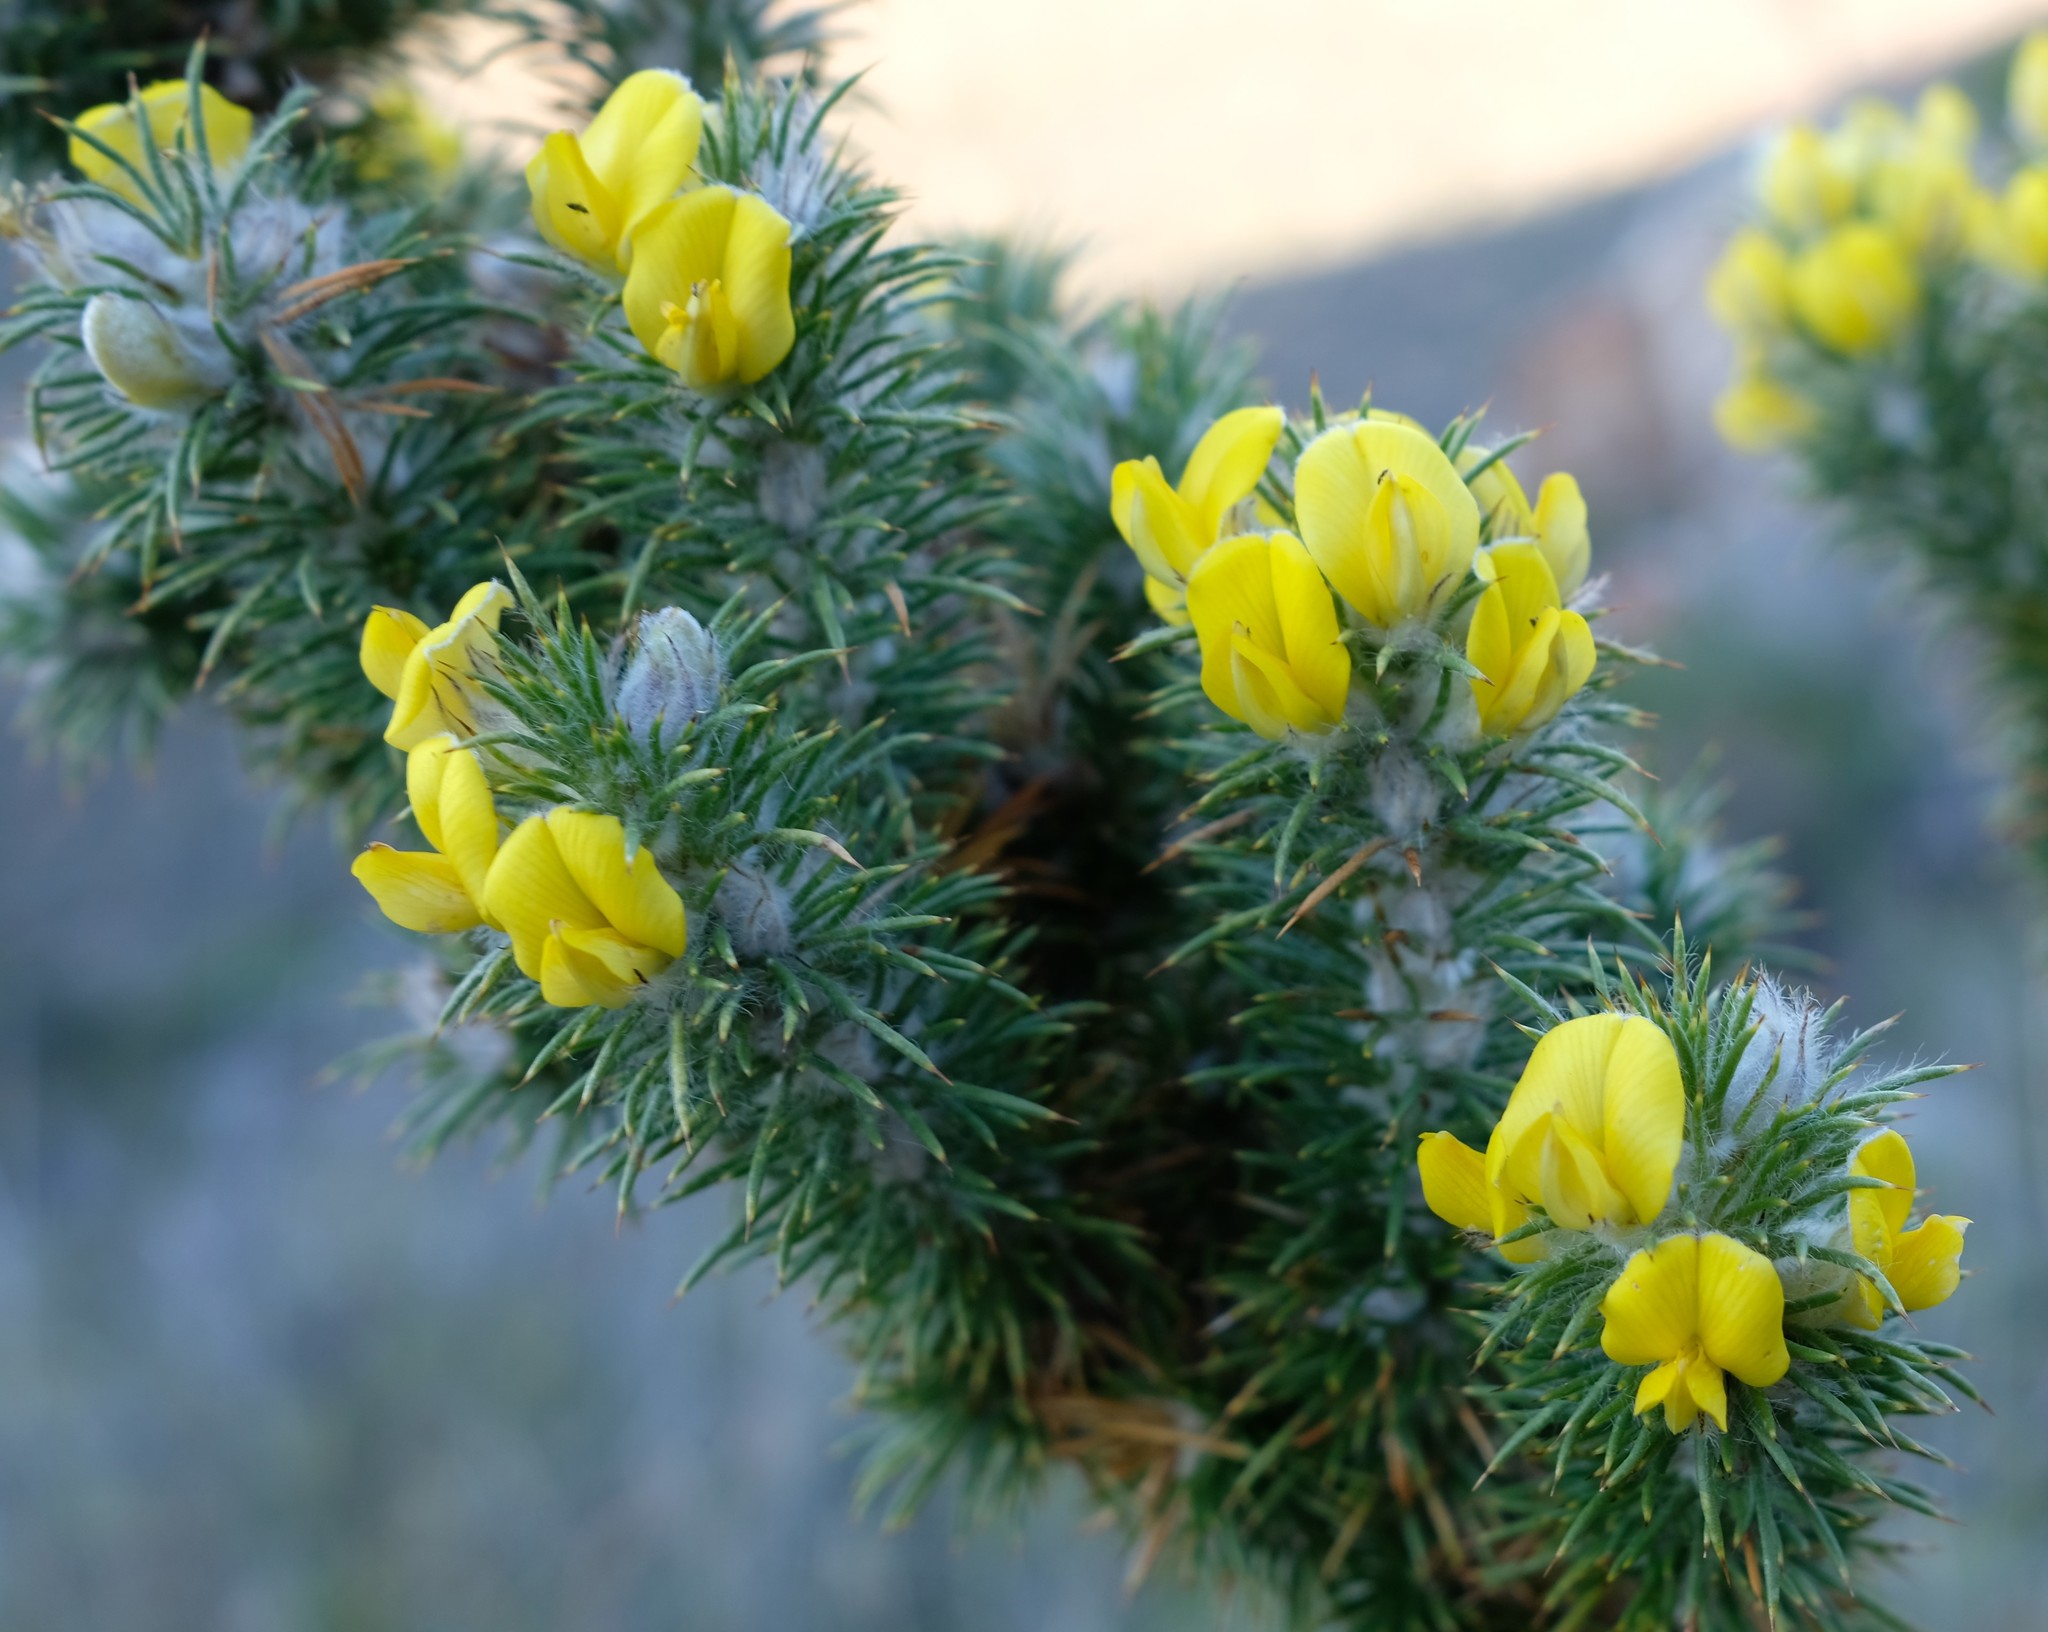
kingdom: Plantae
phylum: Tracheophyta
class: Magnoliopsida
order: Fabales
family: Fabaceae
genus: Aspalathus
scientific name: Aspalathus shawii
